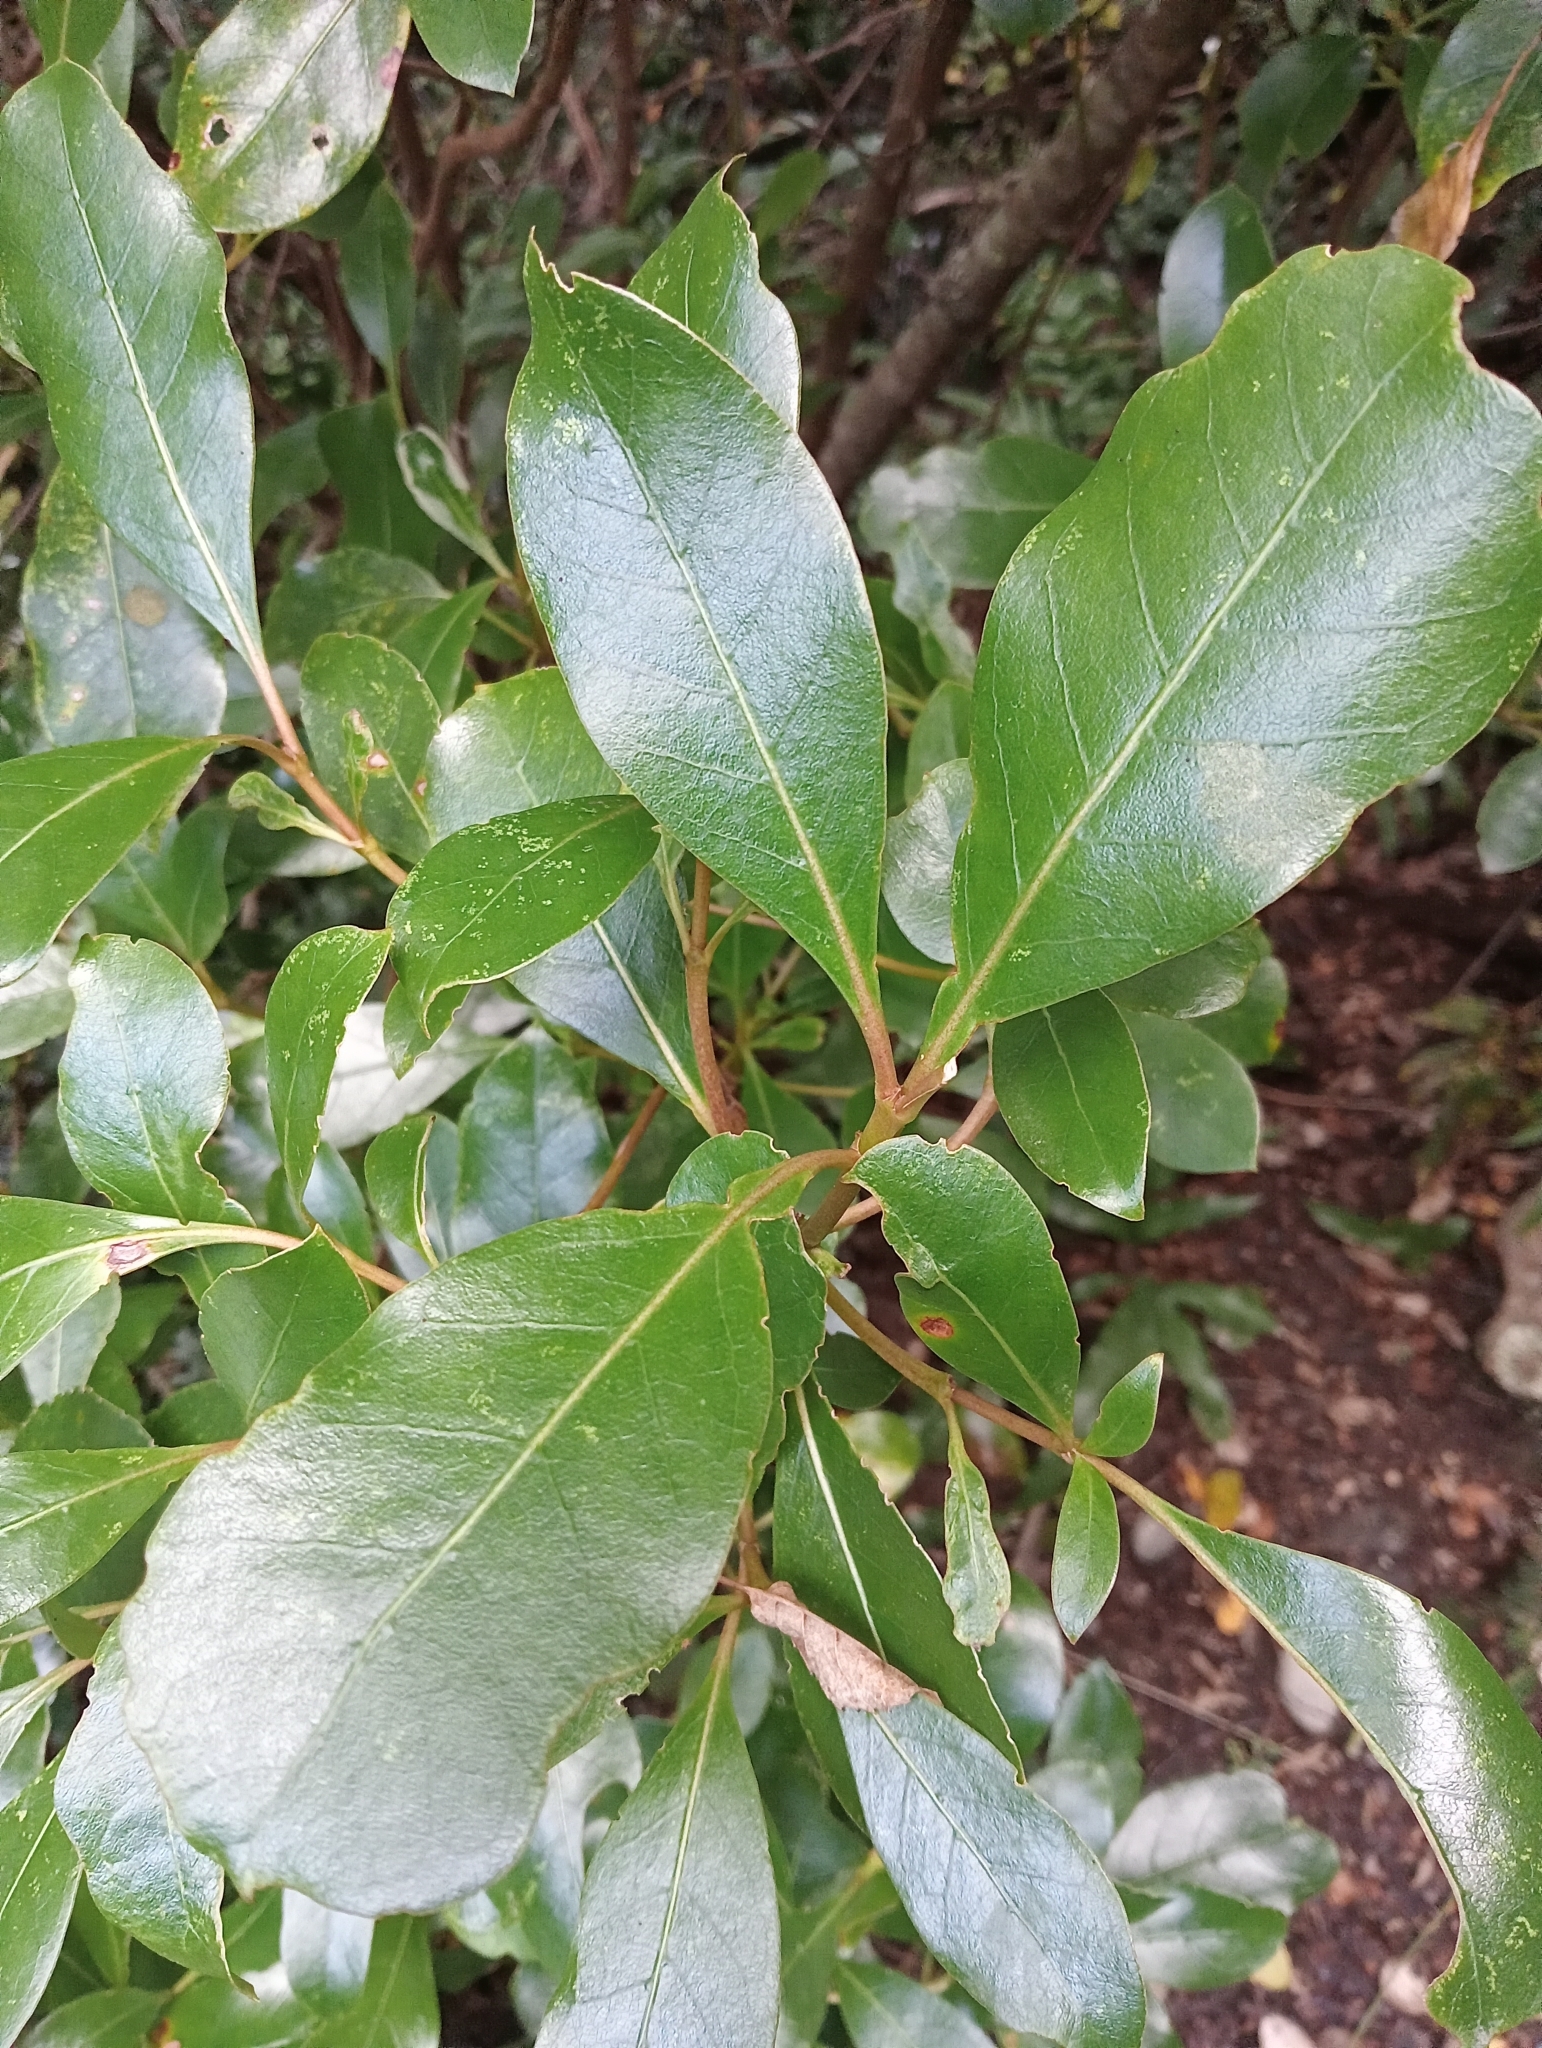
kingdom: Plantae
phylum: Tracheophyta
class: Magnoliopsida
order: Gentianales
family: Rubiaceae
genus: Coprosma
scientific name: Coprosma lucida
